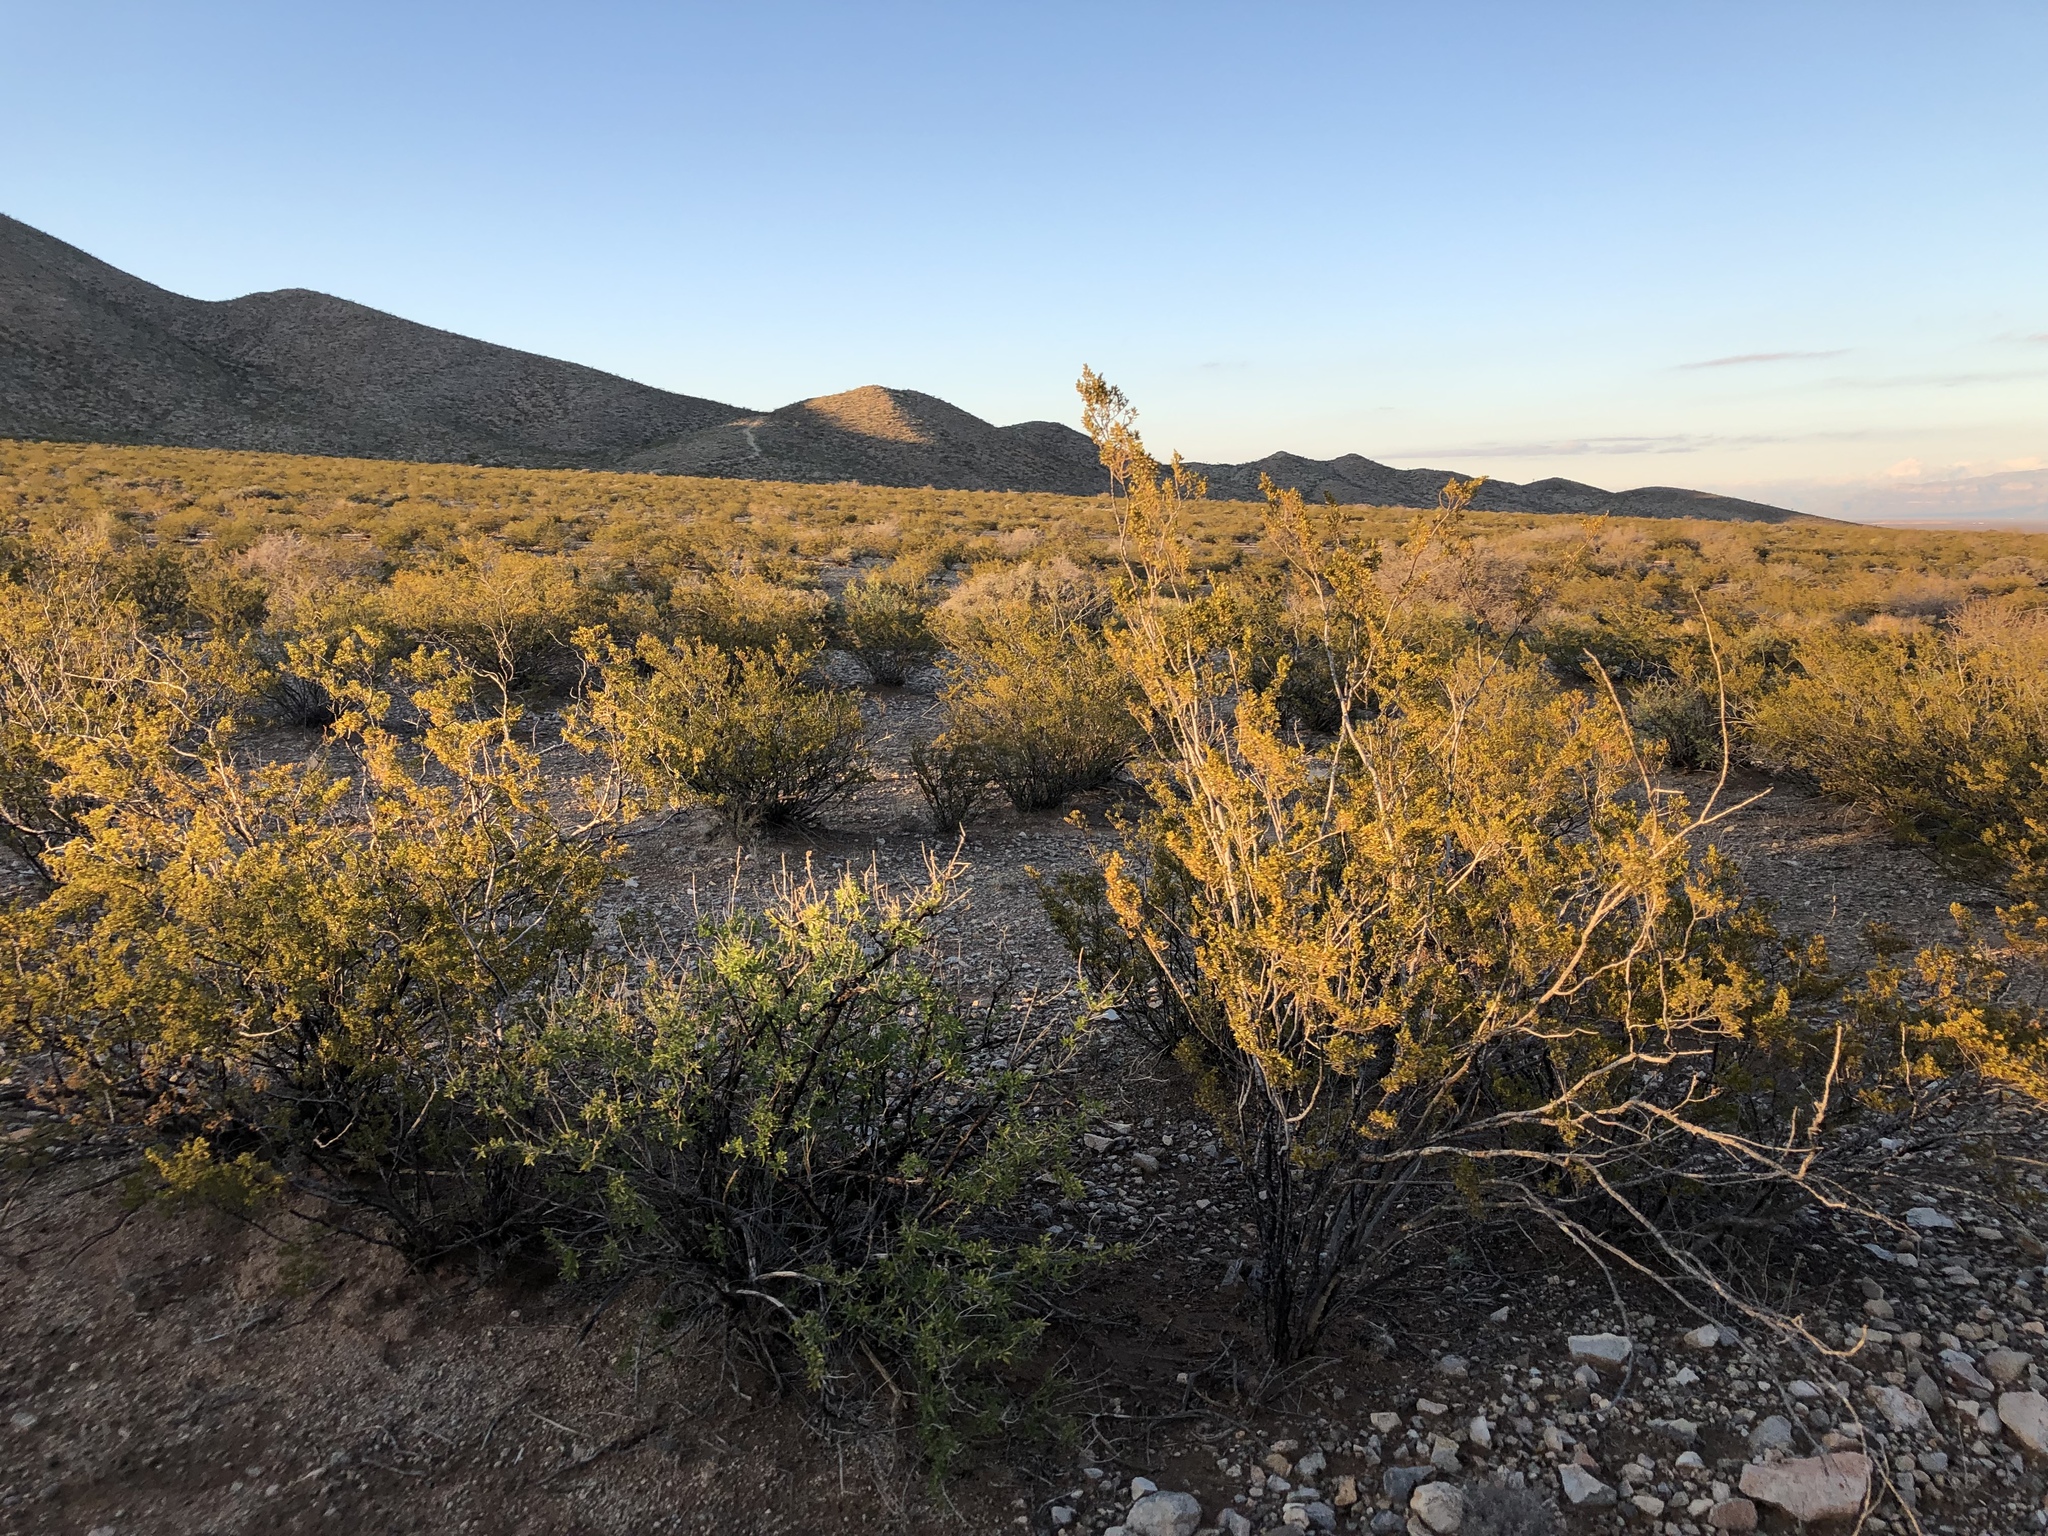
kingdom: Plantae
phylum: Tracheophyta
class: Magnoliopsida
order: Zygophyllales
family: Zygophyllaceae
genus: Larrea
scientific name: Larrea tridentata
